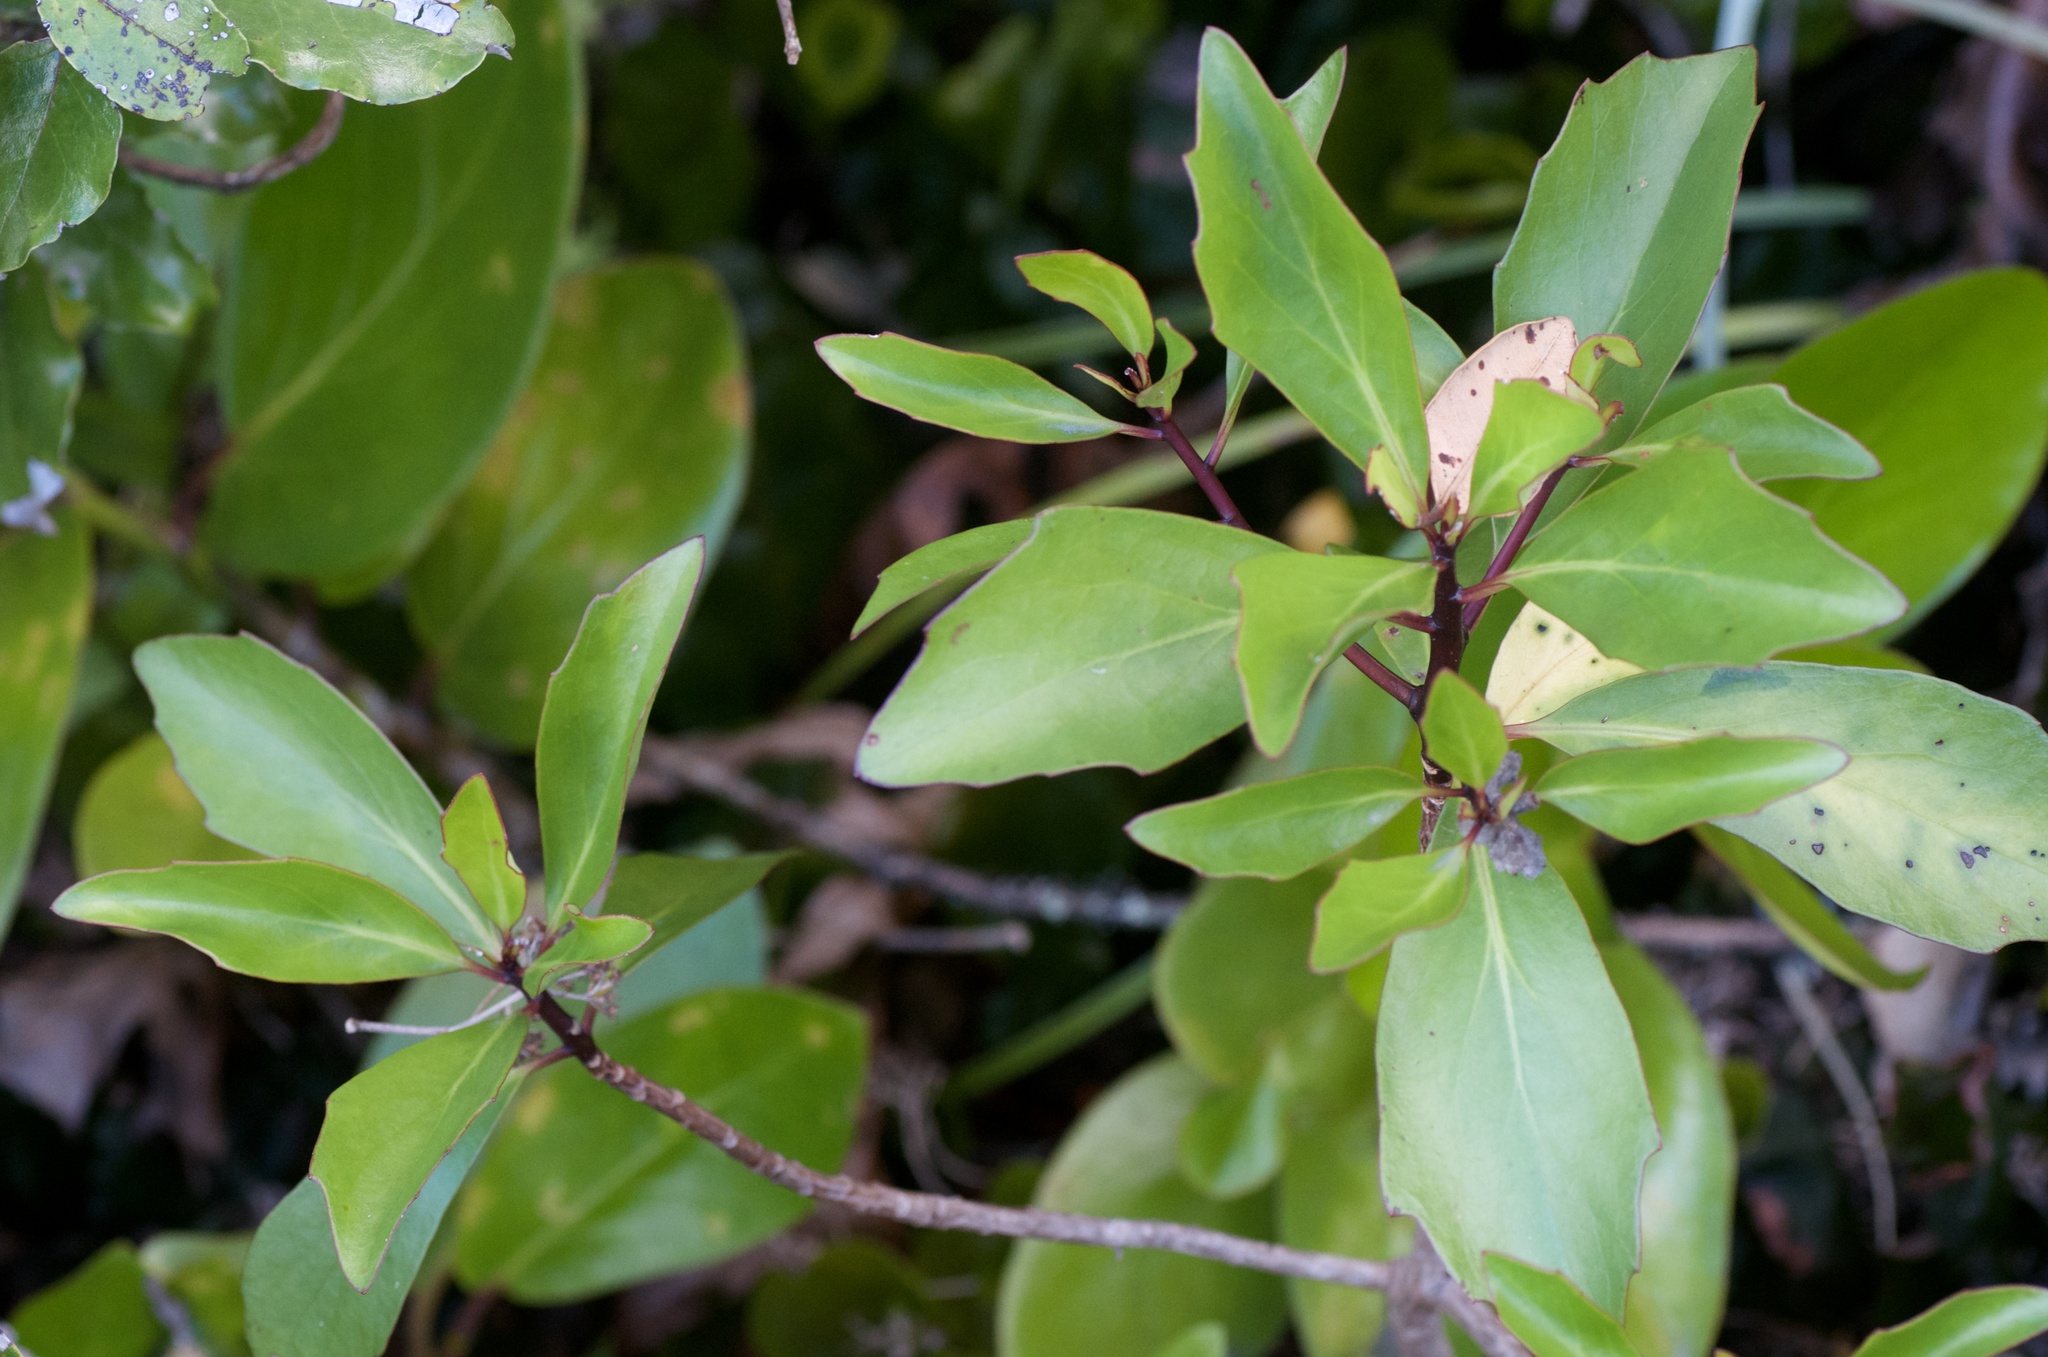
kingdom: Plantae
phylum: Tracheophyta
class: Magnoliopsida
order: Asterales
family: Asteraceae
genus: Brachyglottis
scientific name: Brachyglottis kirkii
